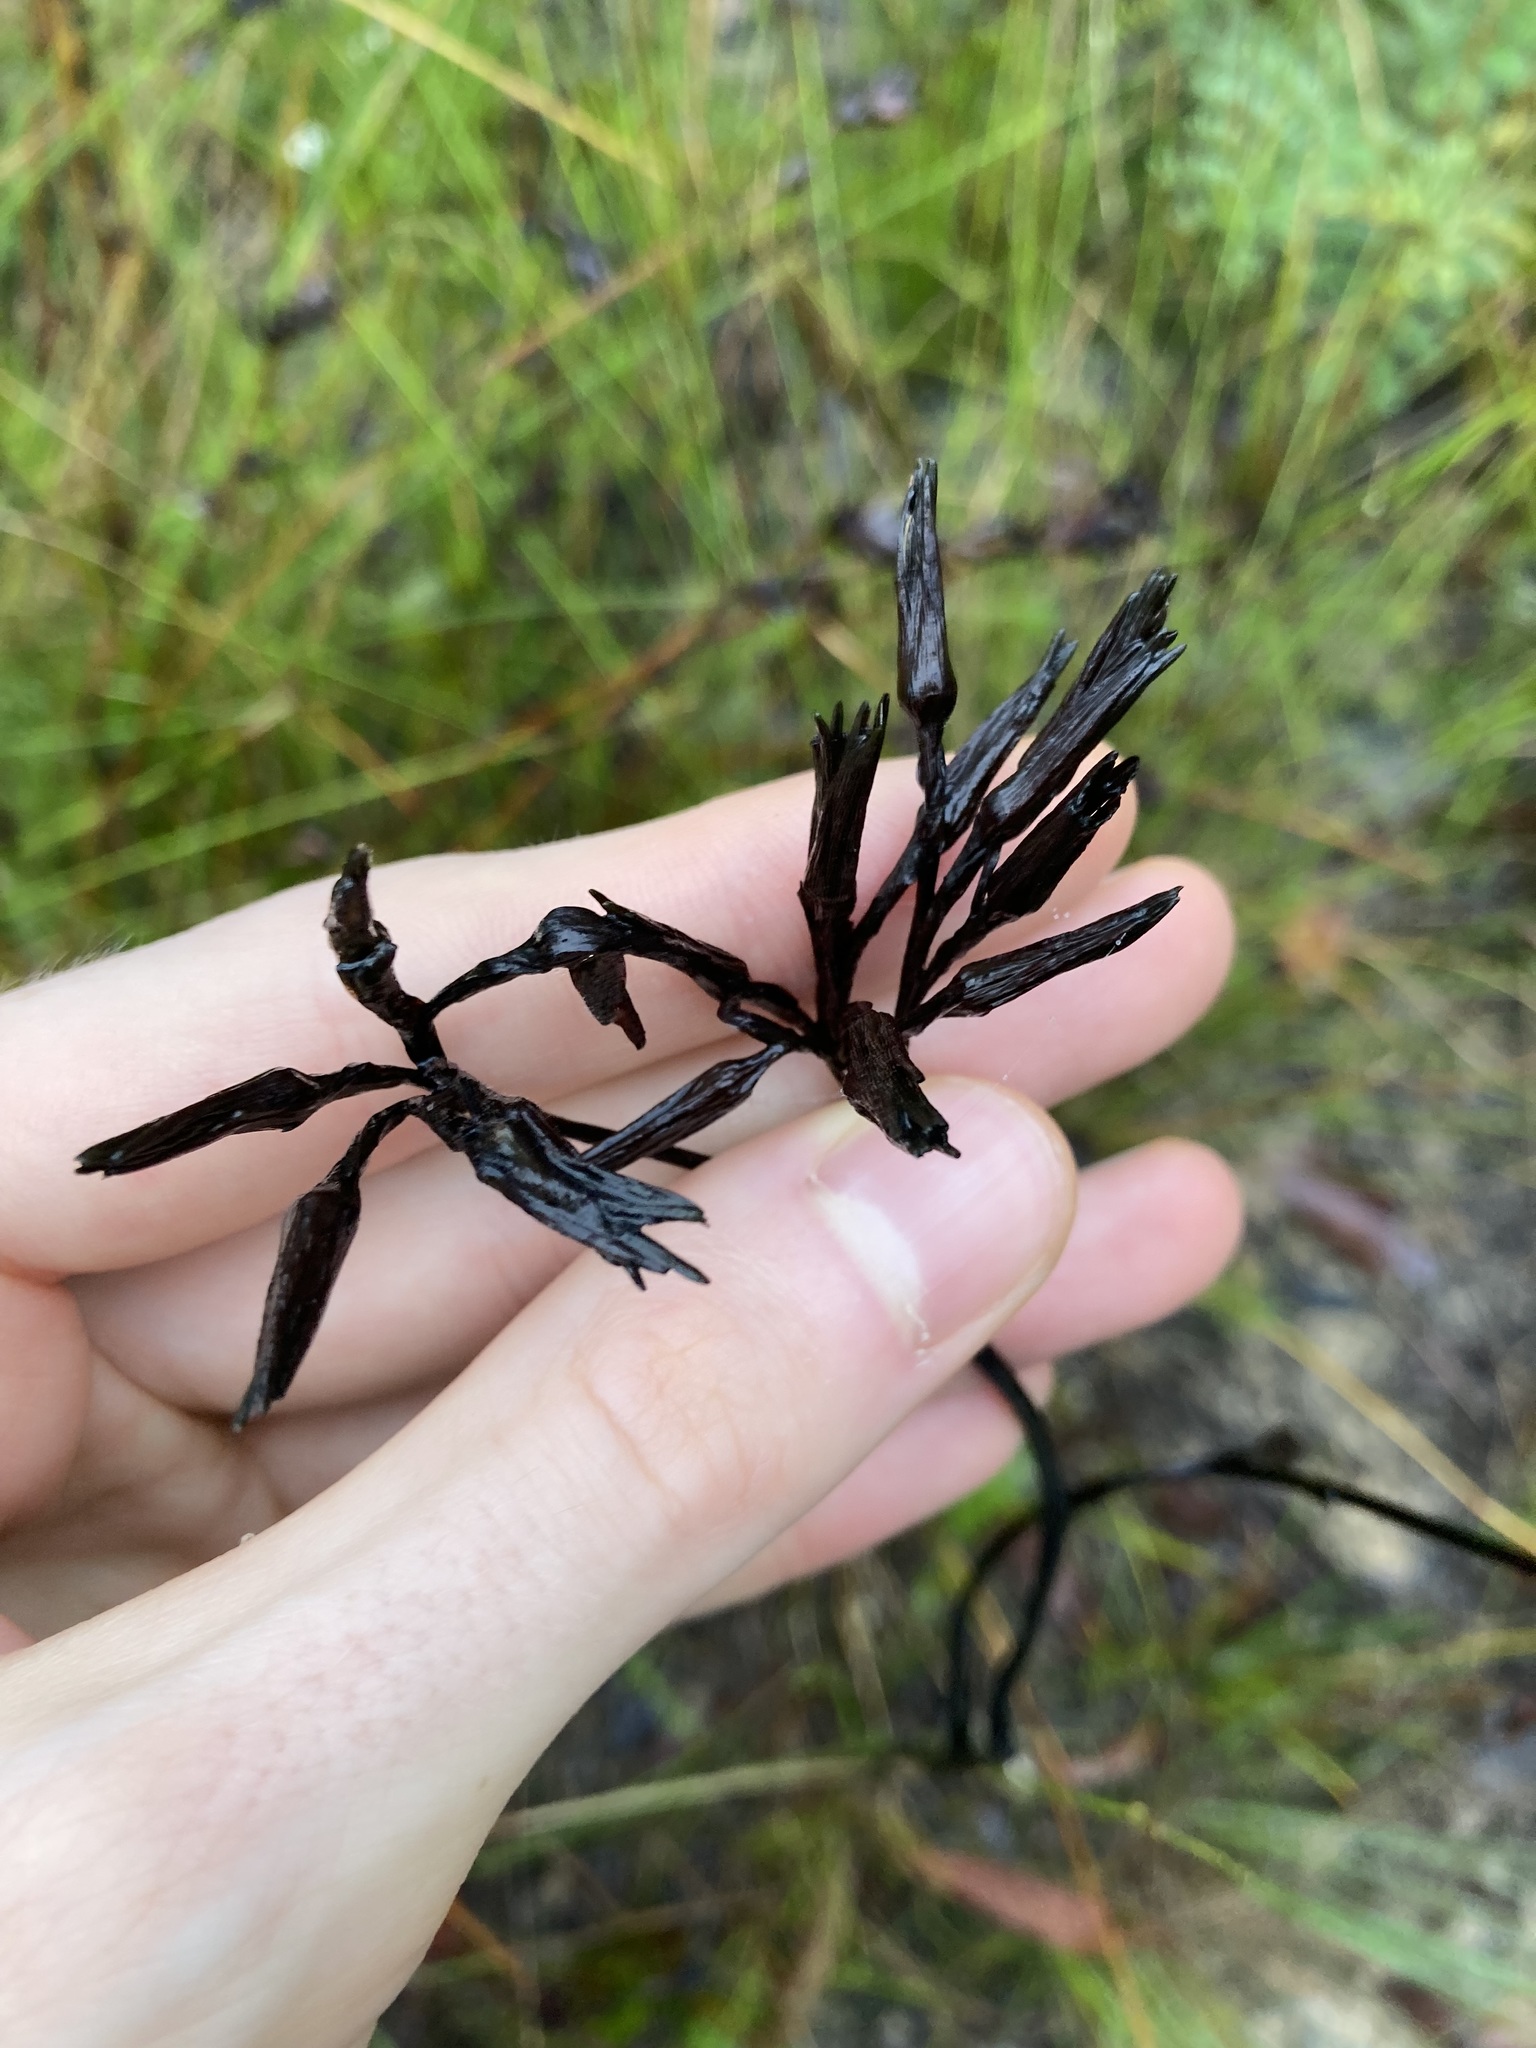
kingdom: Plantae
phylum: Tracheophyta
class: Liliopsida
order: Commelinales
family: Haemodoraceae
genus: Haemodorum
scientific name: Haemodorum planifolium
